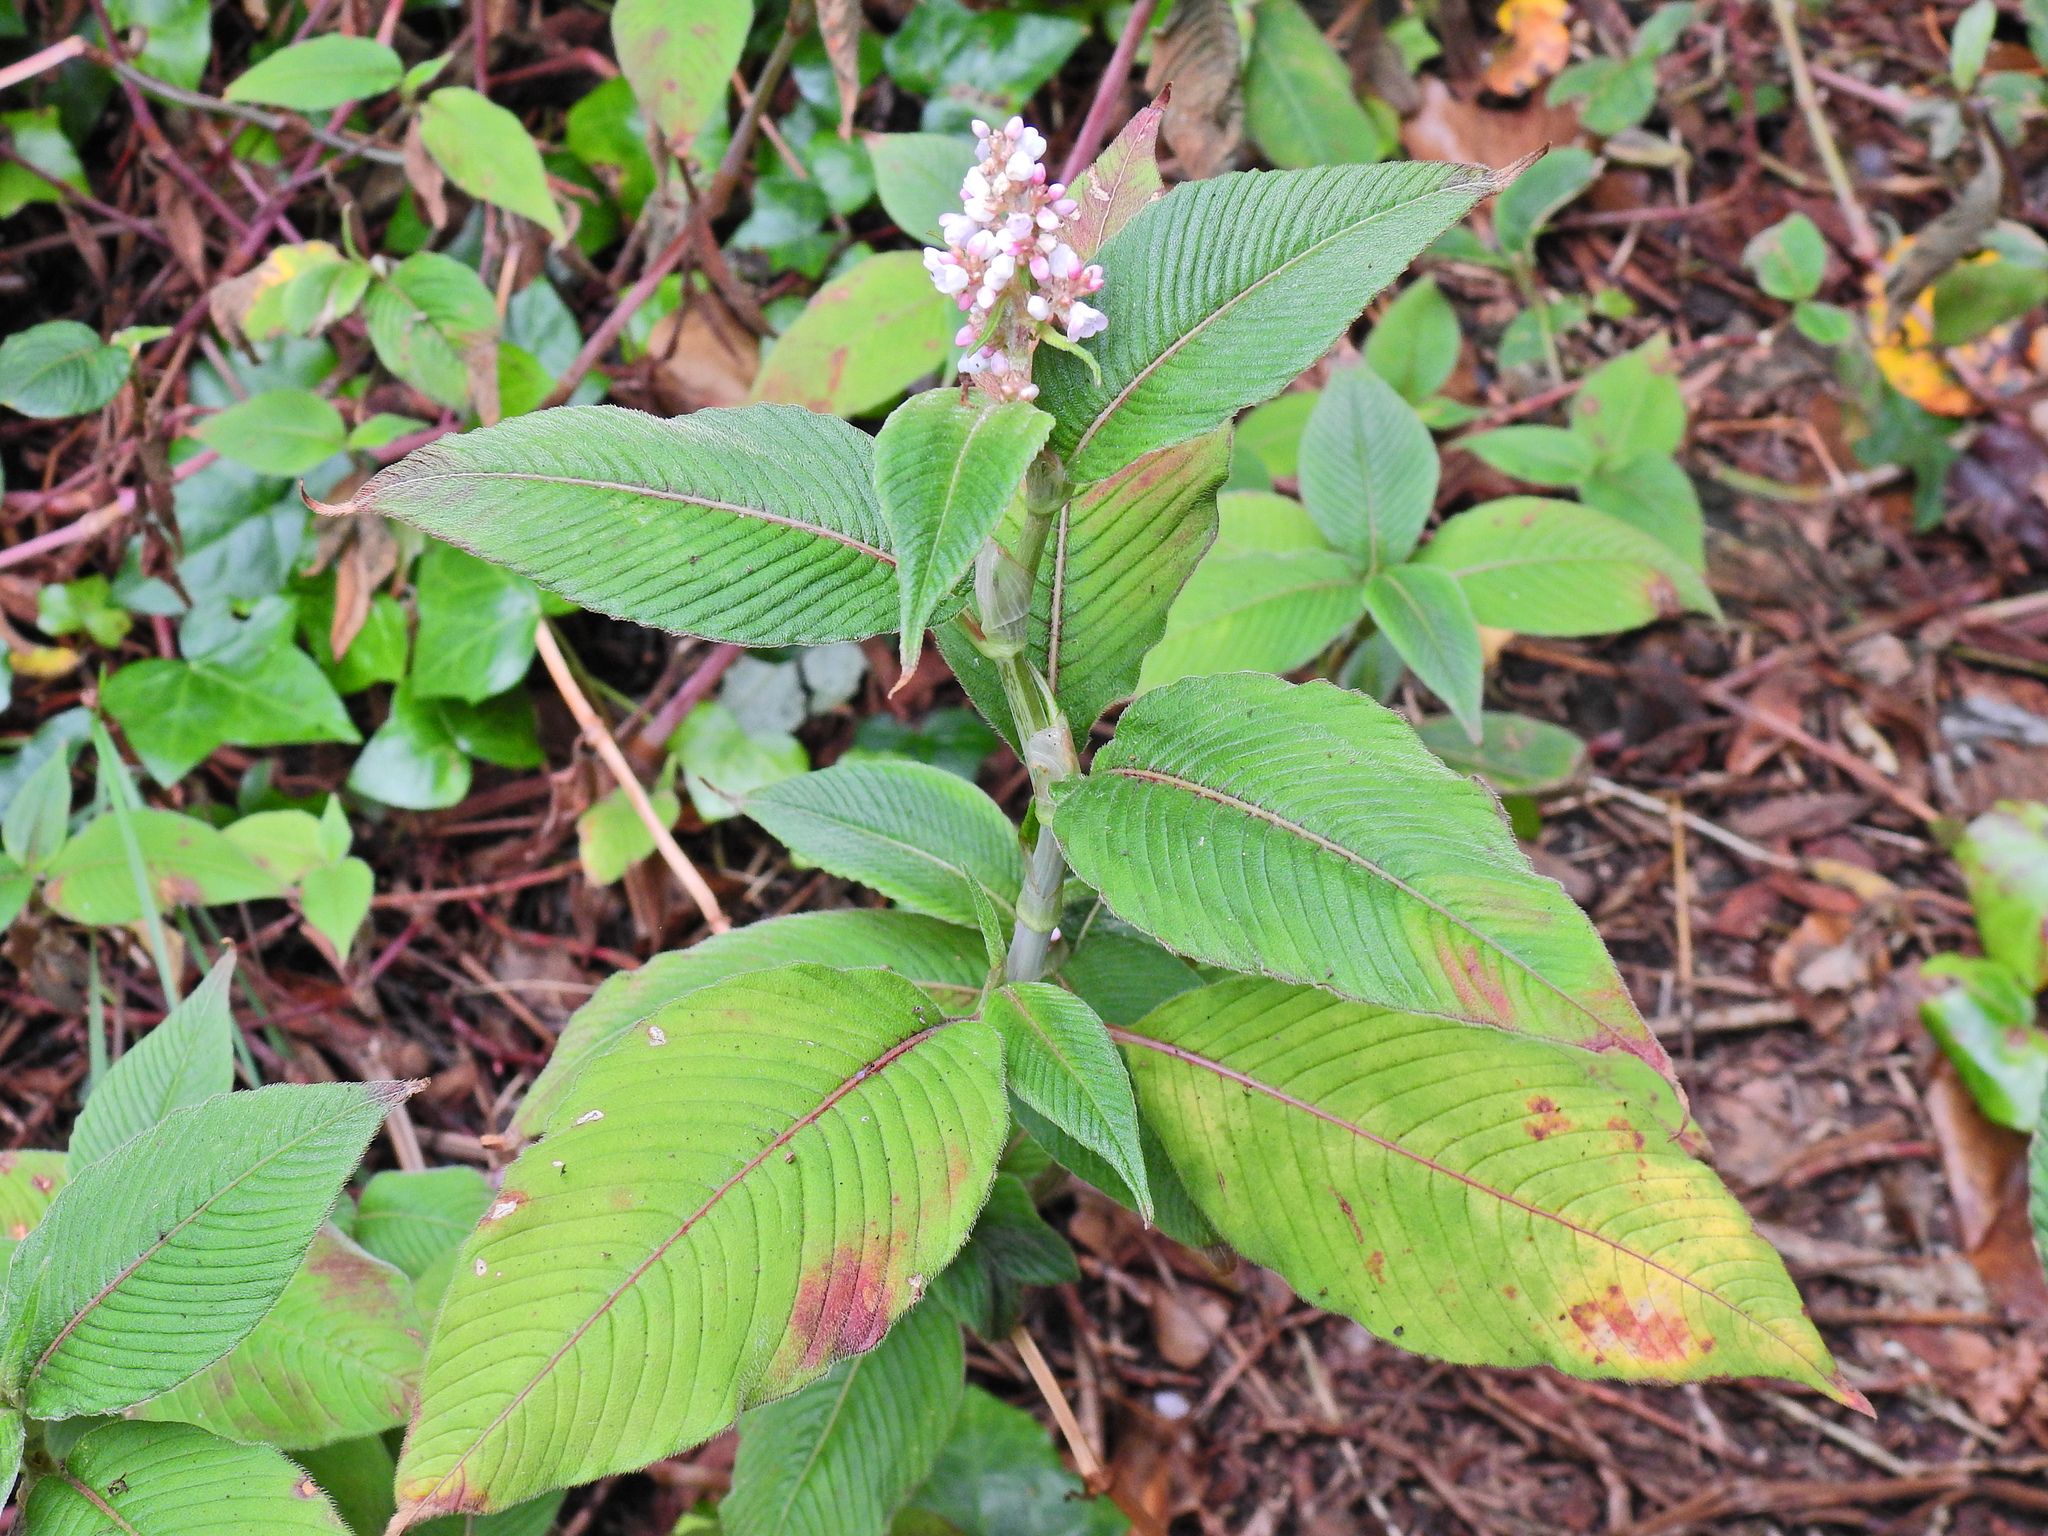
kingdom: Plantae
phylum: Tracheophyta
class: Magnoliopsida
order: Caryophyllales
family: Polygonaceae
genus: Koenigia
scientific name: Koenigia campanulata
